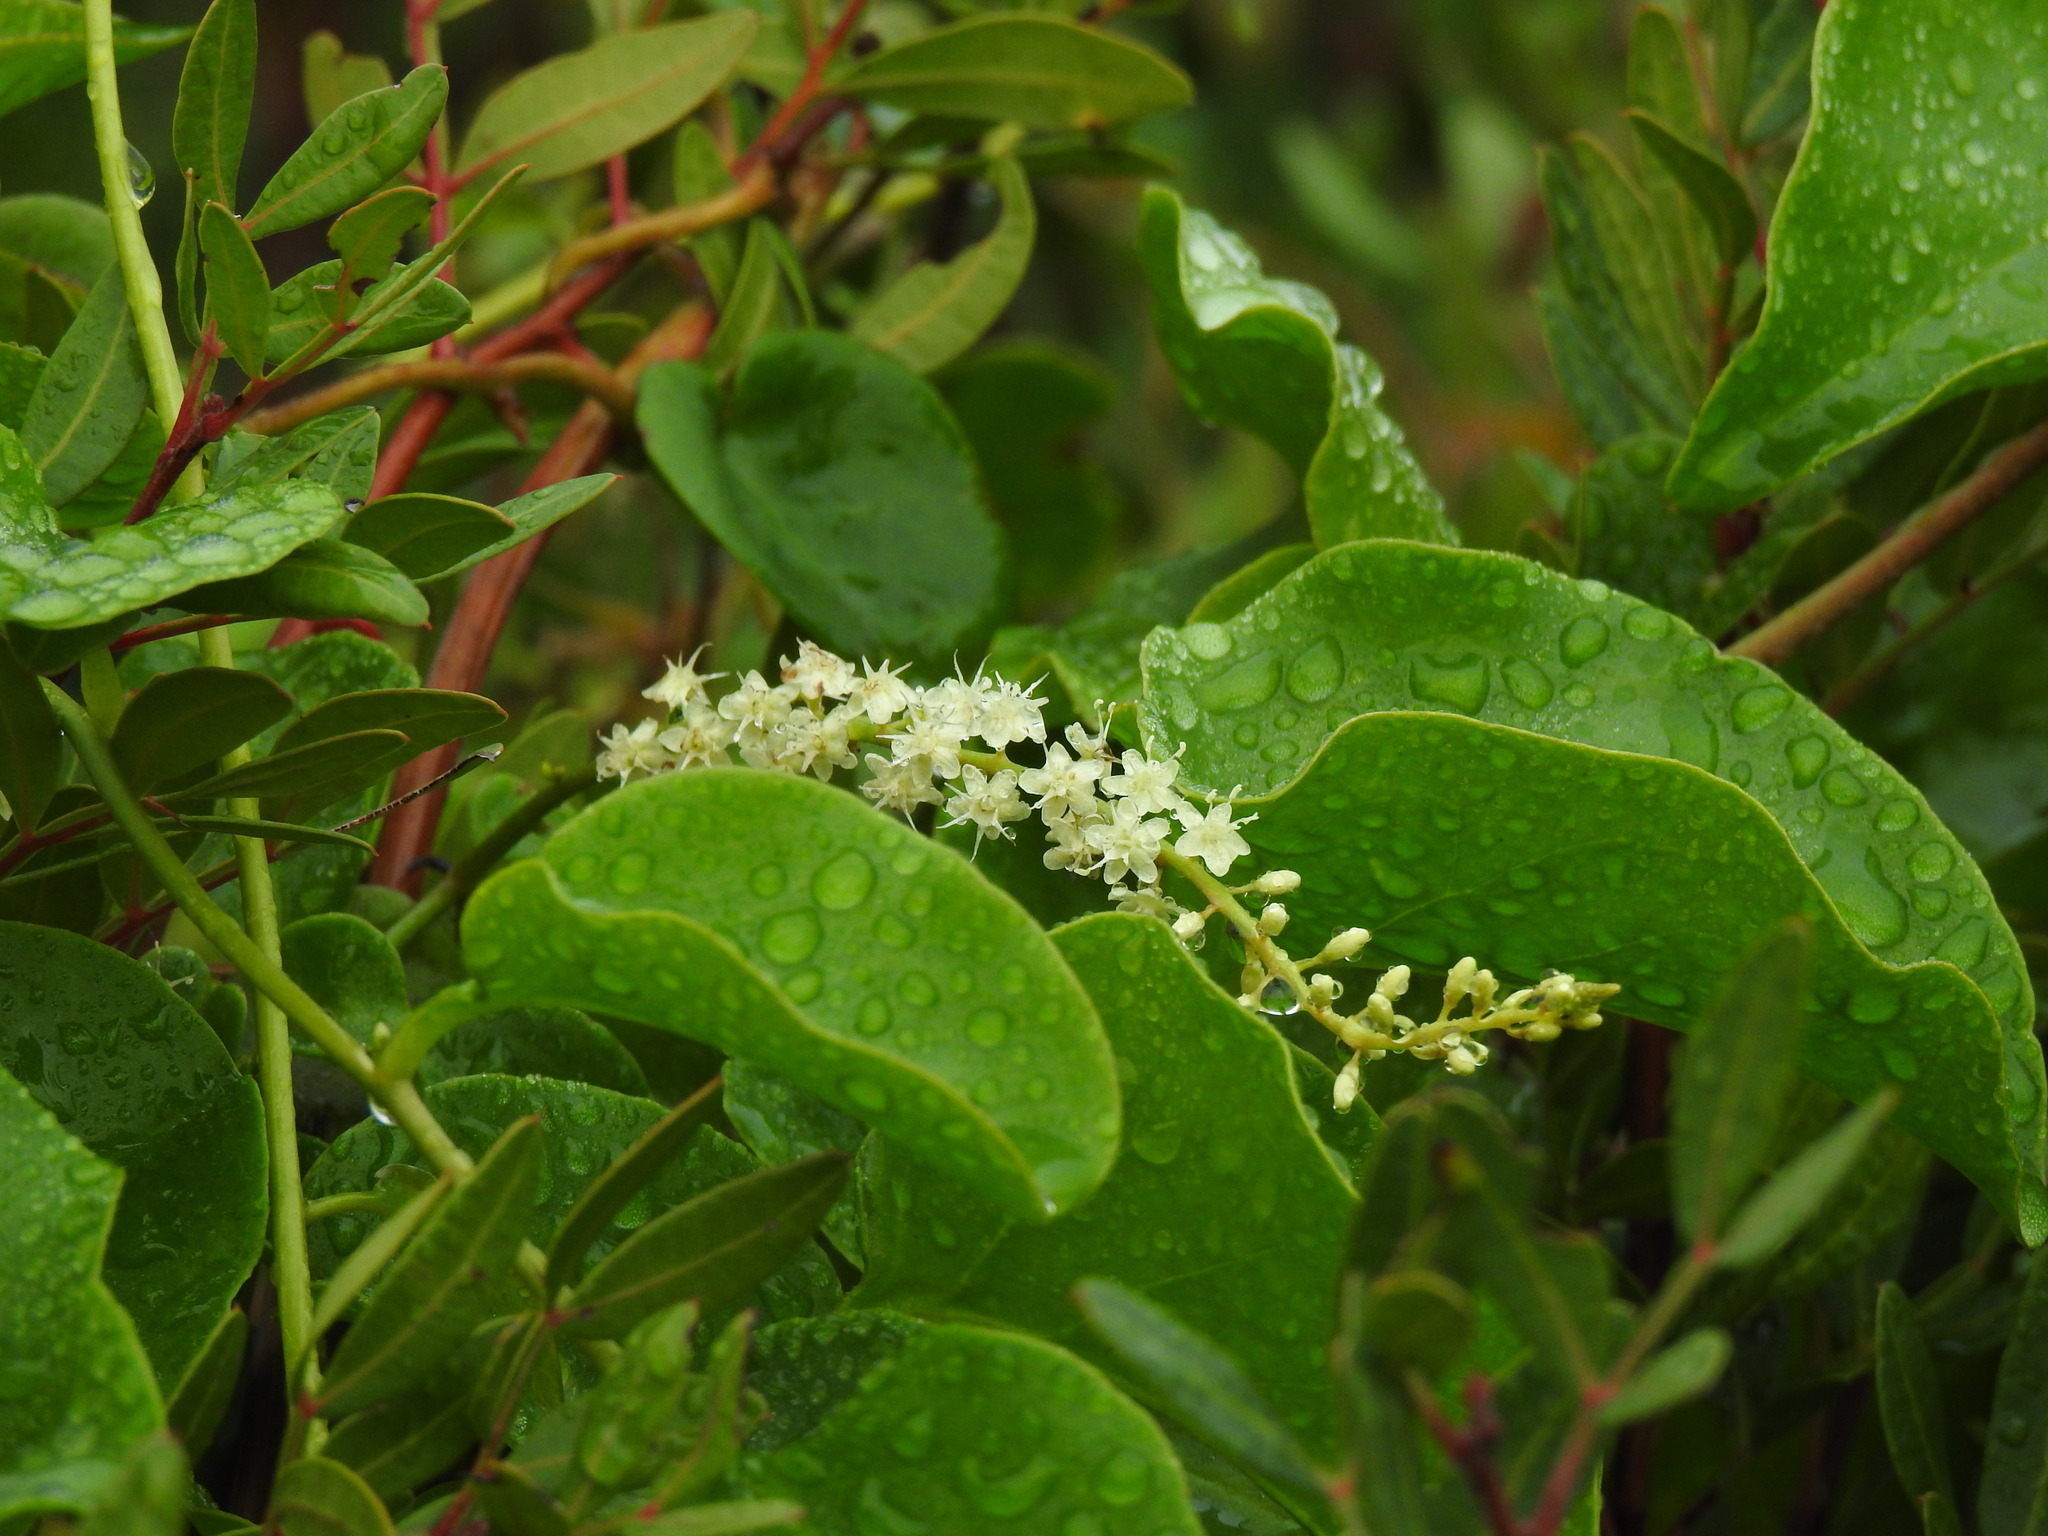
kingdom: Plantae
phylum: Tracheophyta
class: Magnoliopsida
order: Caryophyllales
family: Basellaceae
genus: Anredera
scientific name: Anredera cordifolia
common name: Heartleaf madeiravine
